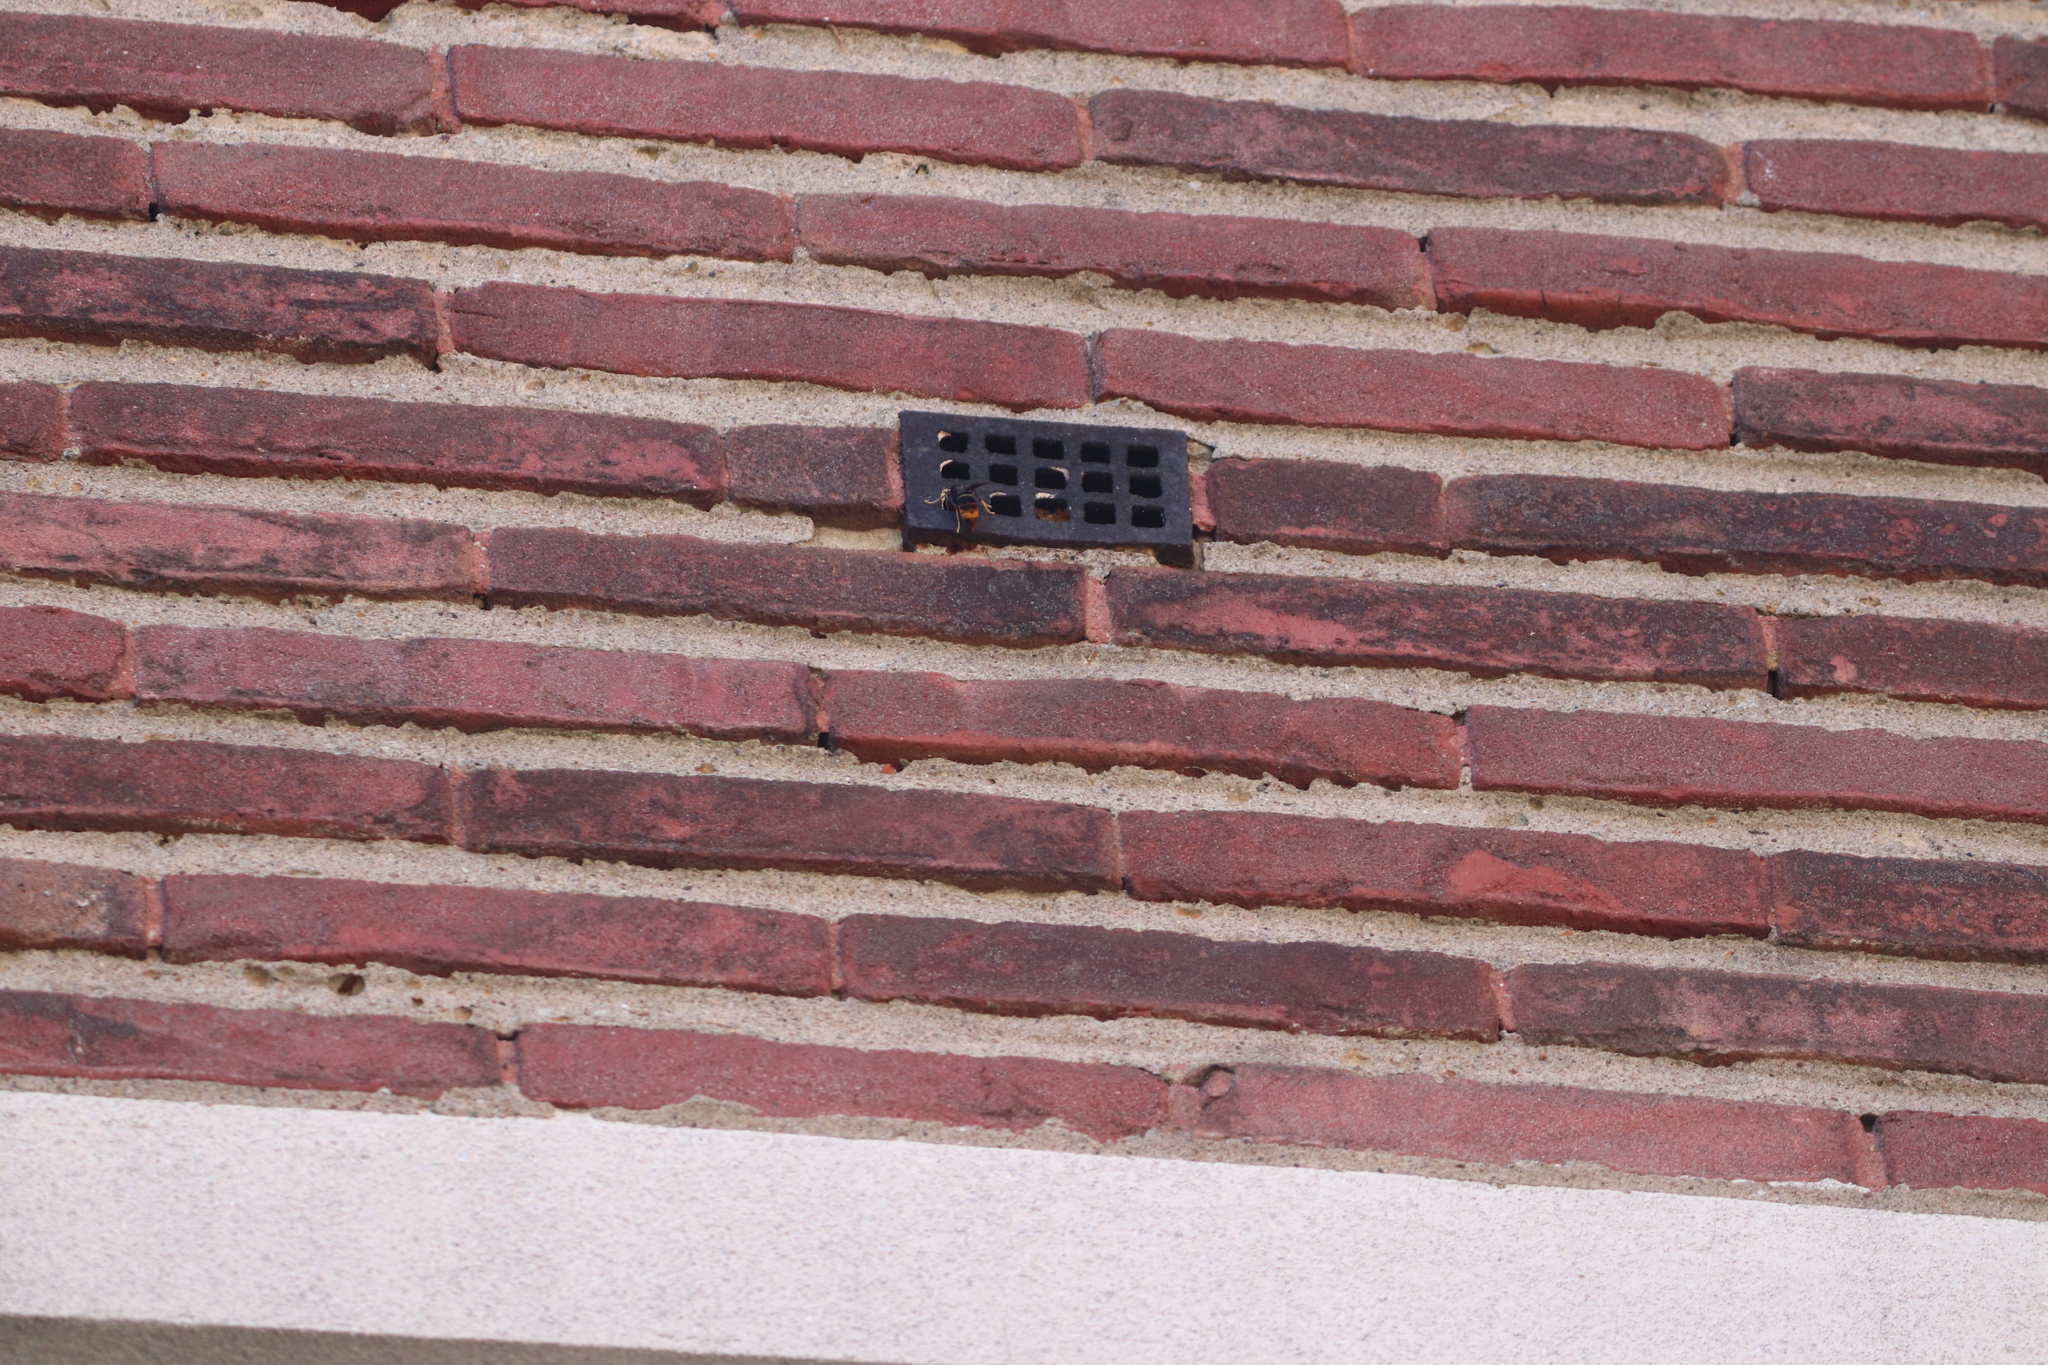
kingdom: Animalia
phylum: Arthropoda
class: Insecta
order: Hymenoptera
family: Vespidae
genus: Vespa
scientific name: Vespa velutina
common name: Asian hornet
